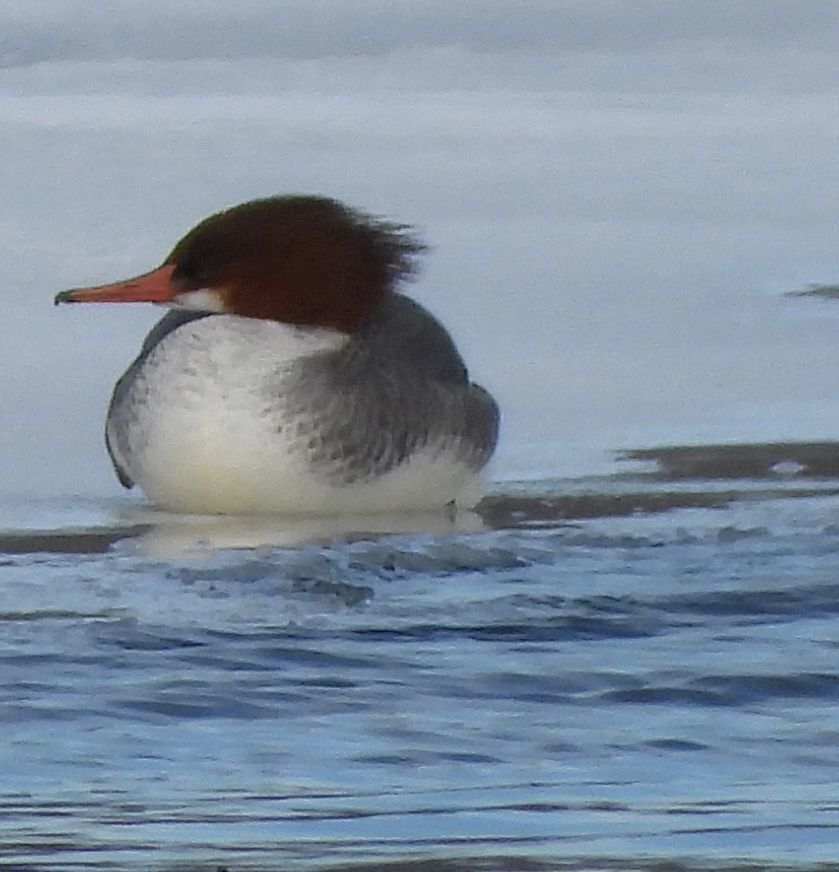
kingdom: Animalia
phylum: Chordata
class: Aves
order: Anseriformes
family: Anatidae
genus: Mergus
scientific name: Mergus merganser
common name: Common merganser
